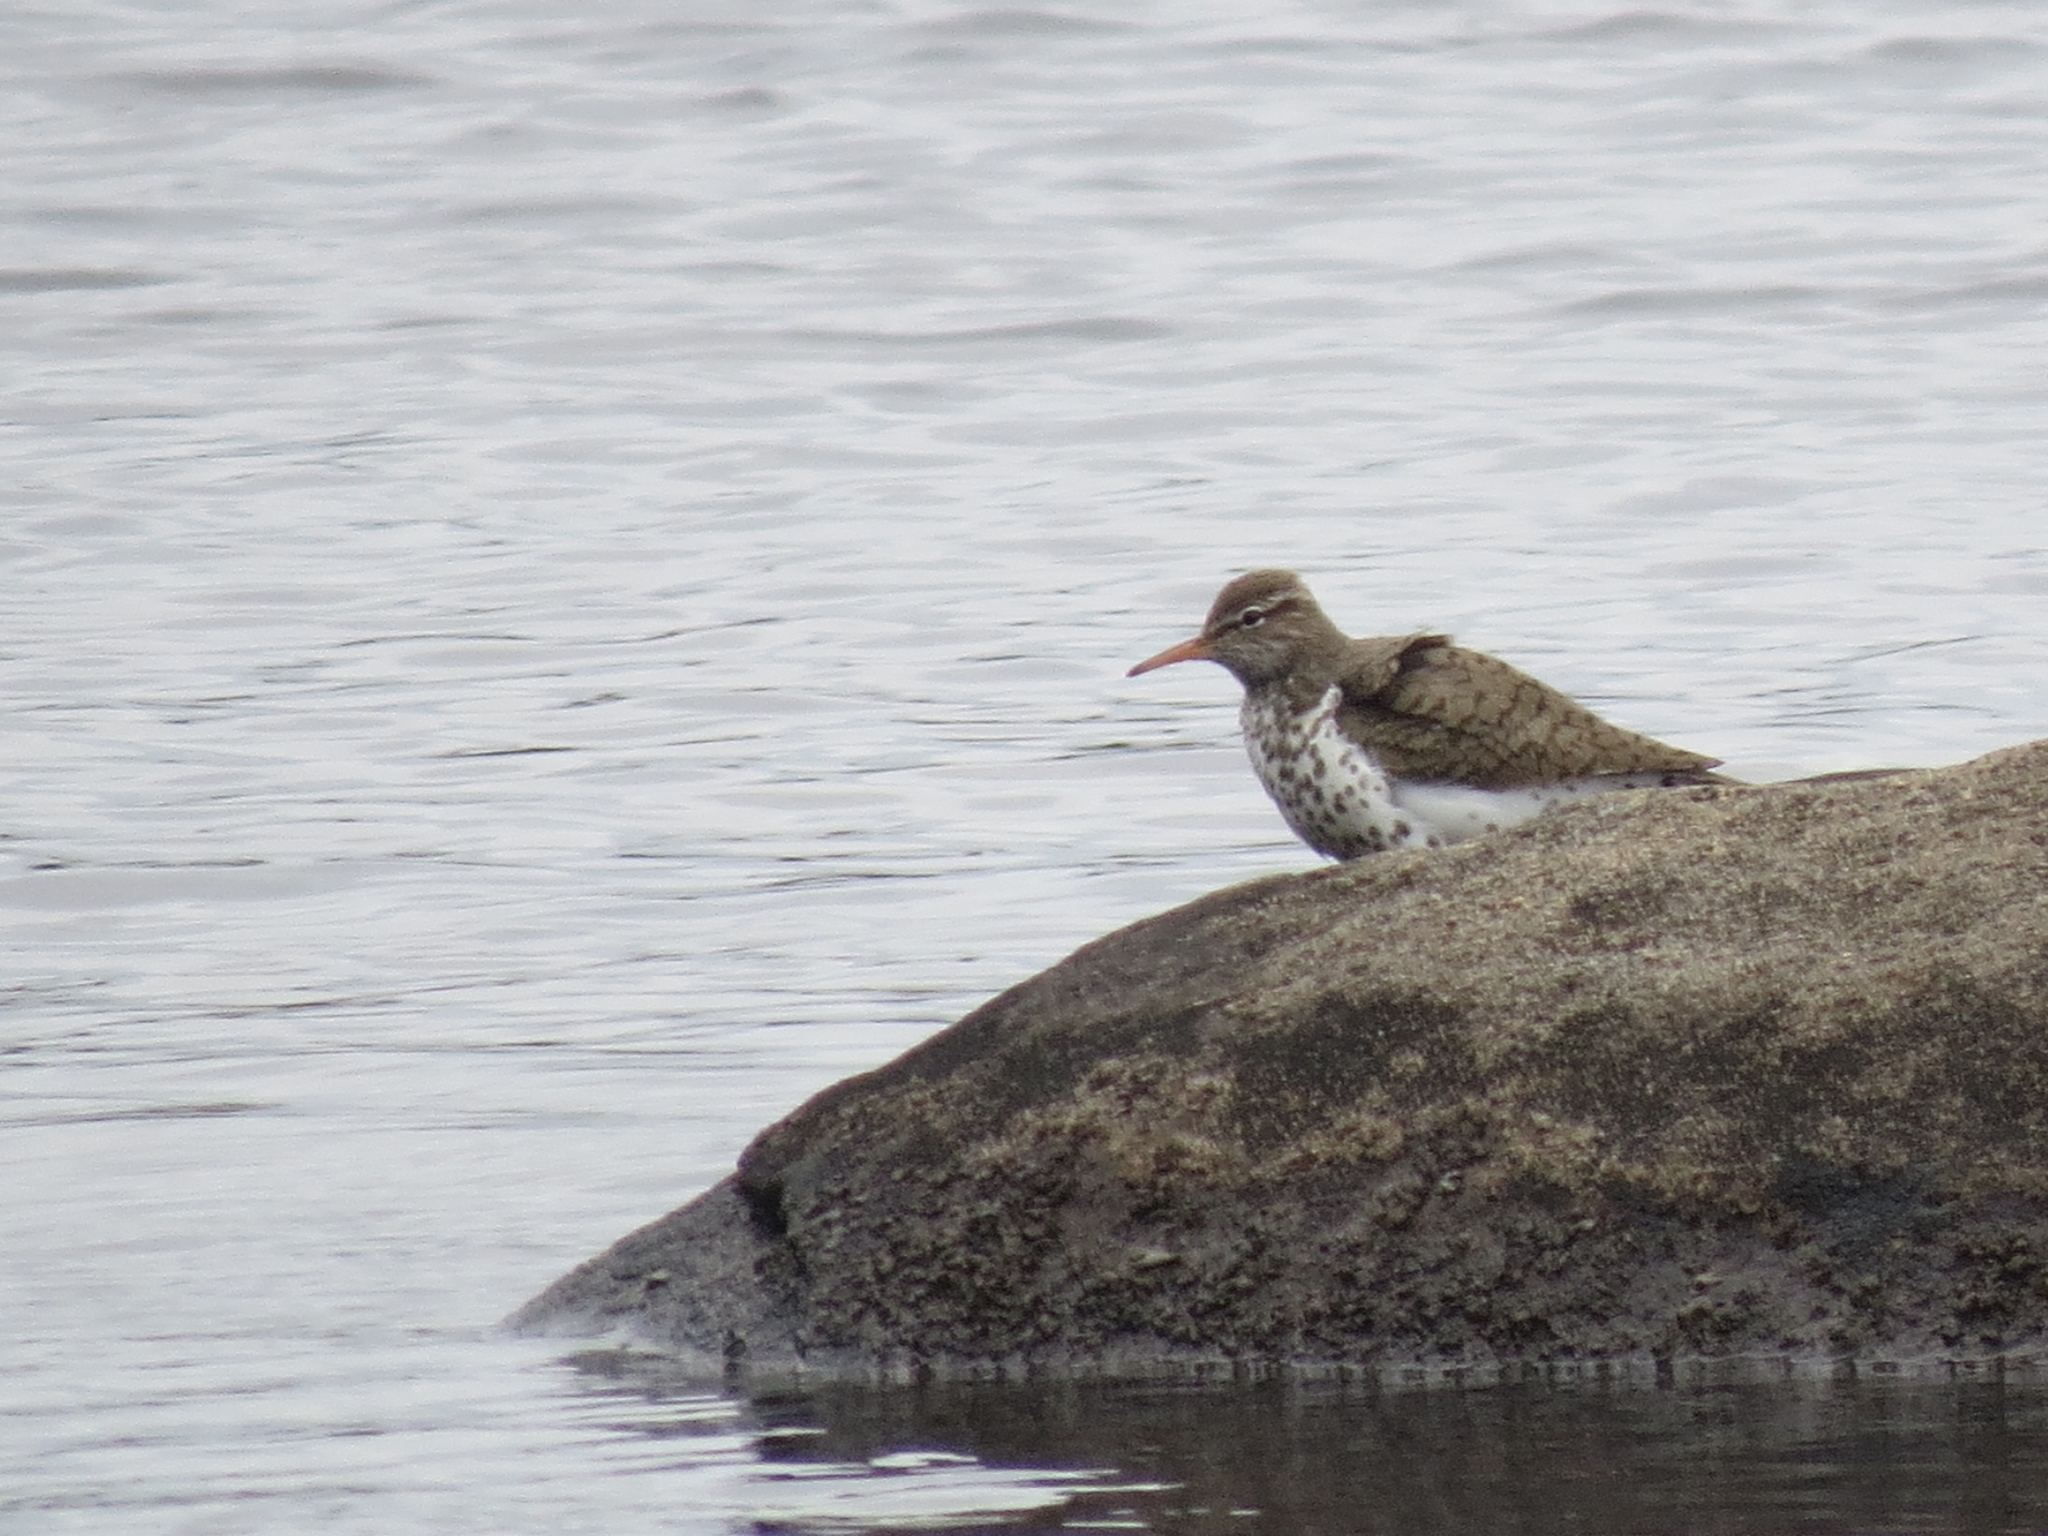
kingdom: Animalia
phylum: Chordata
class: Aves
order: Charadriiformes
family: Scolopacidae
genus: Actitis
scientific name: Actitis macularius
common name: Spotted sandpiper
